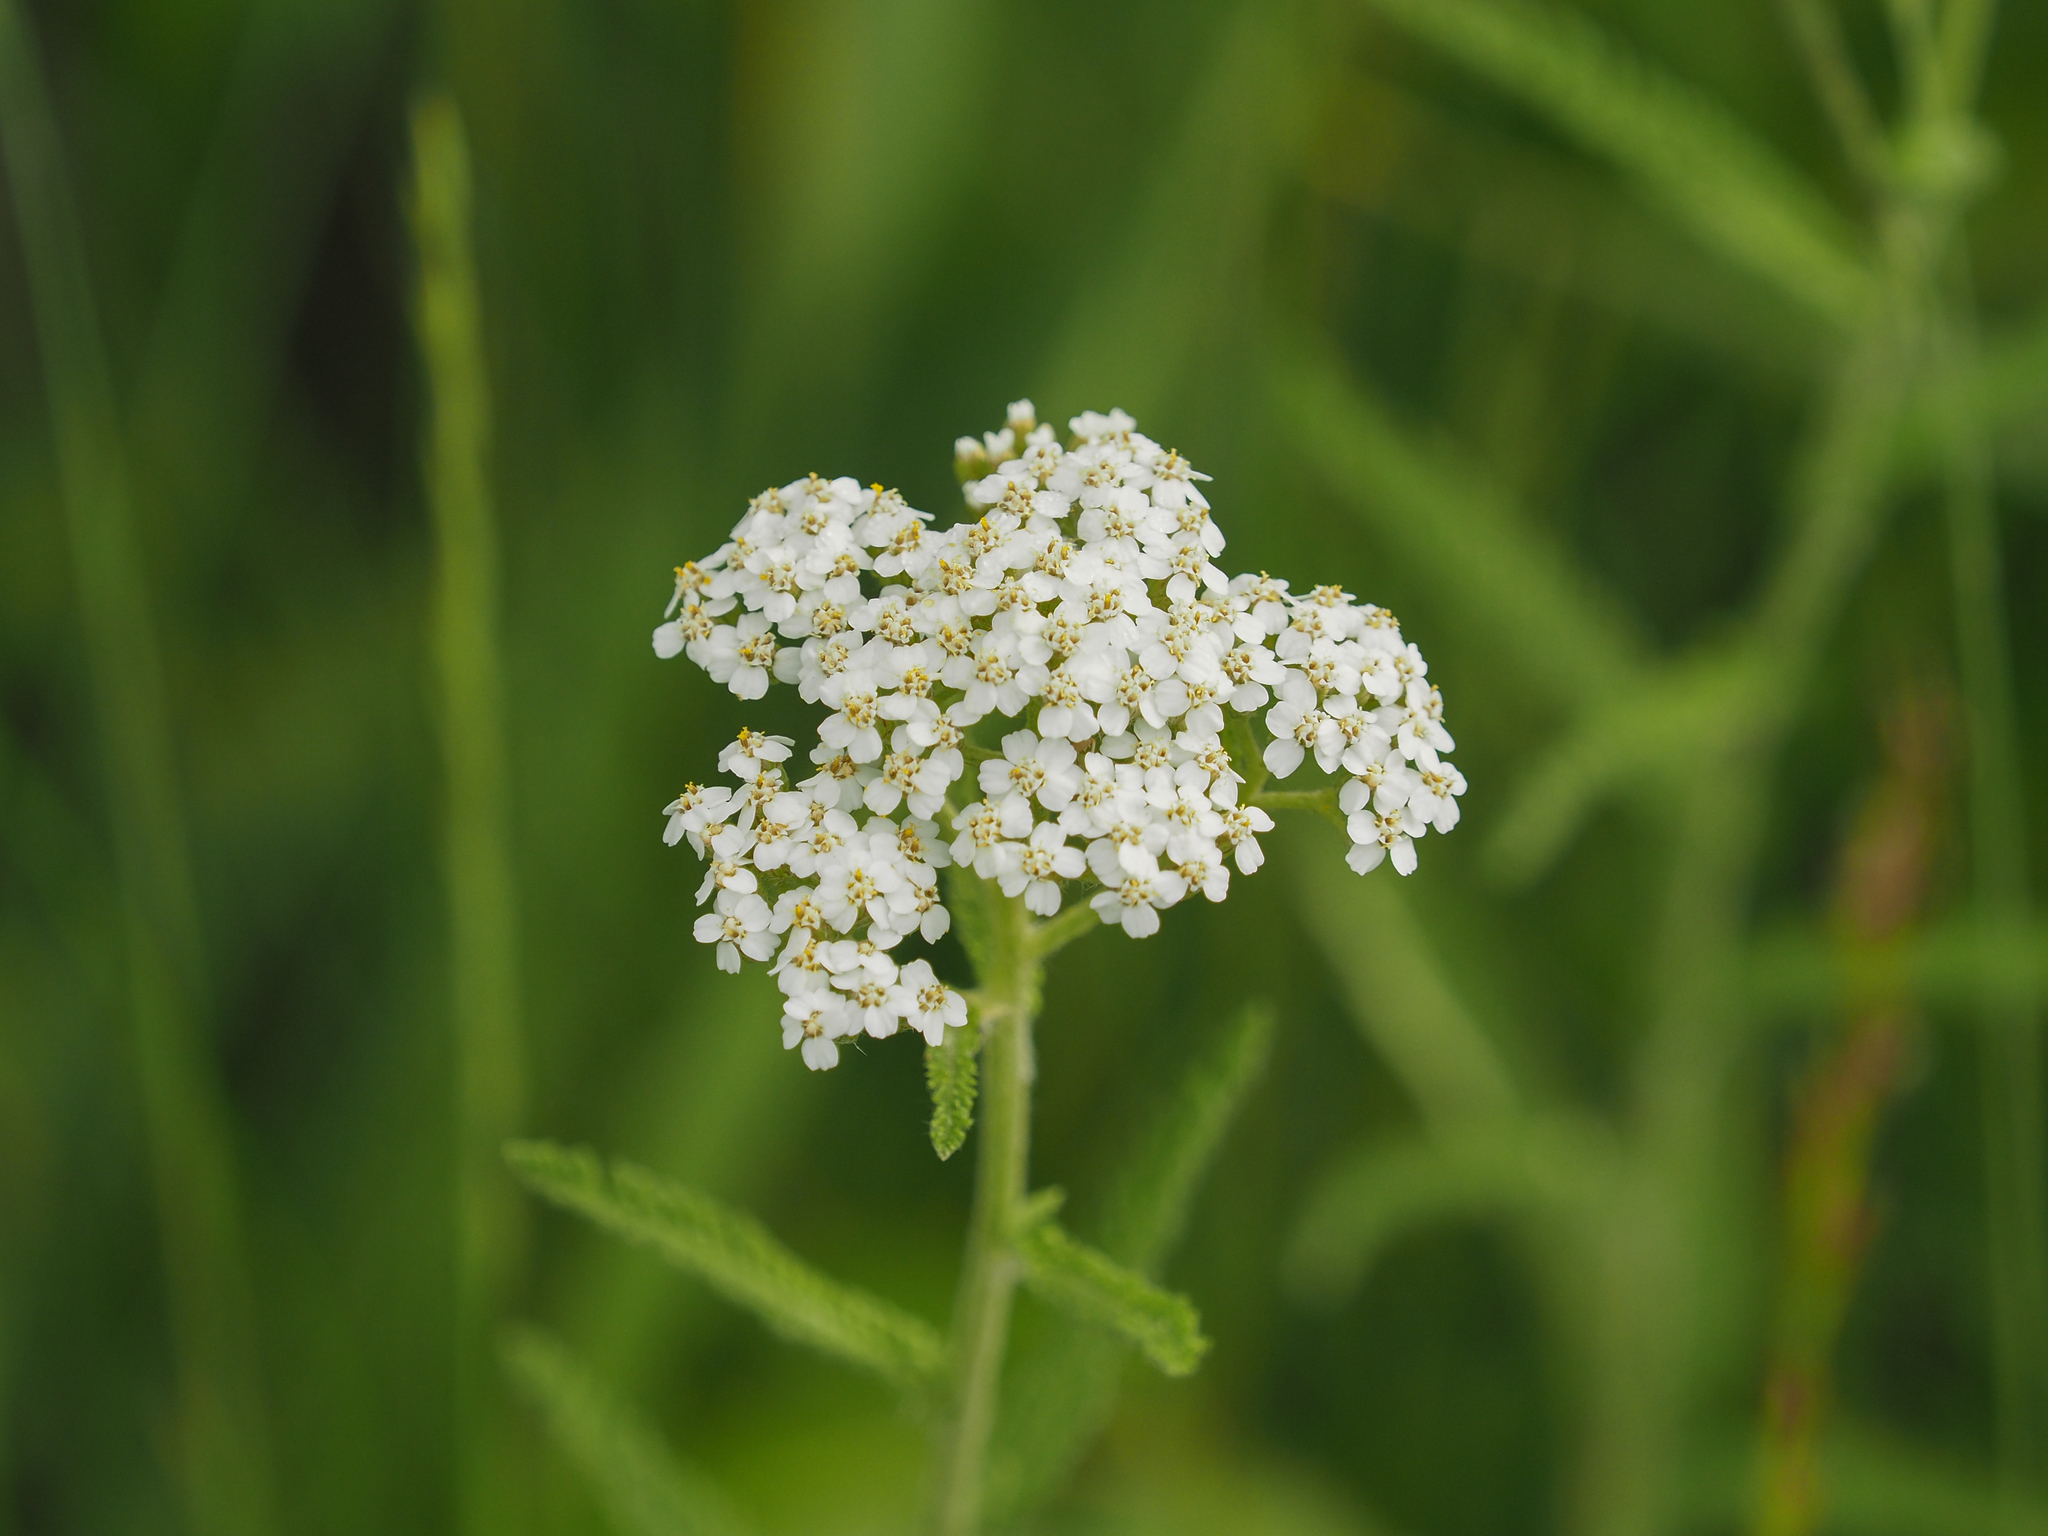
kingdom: Plantae
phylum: Tracheophyta
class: Magnoliopsida
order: Asterales
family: Asteraceae
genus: Achillea
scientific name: Achillea millefolium
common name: Yarrow
